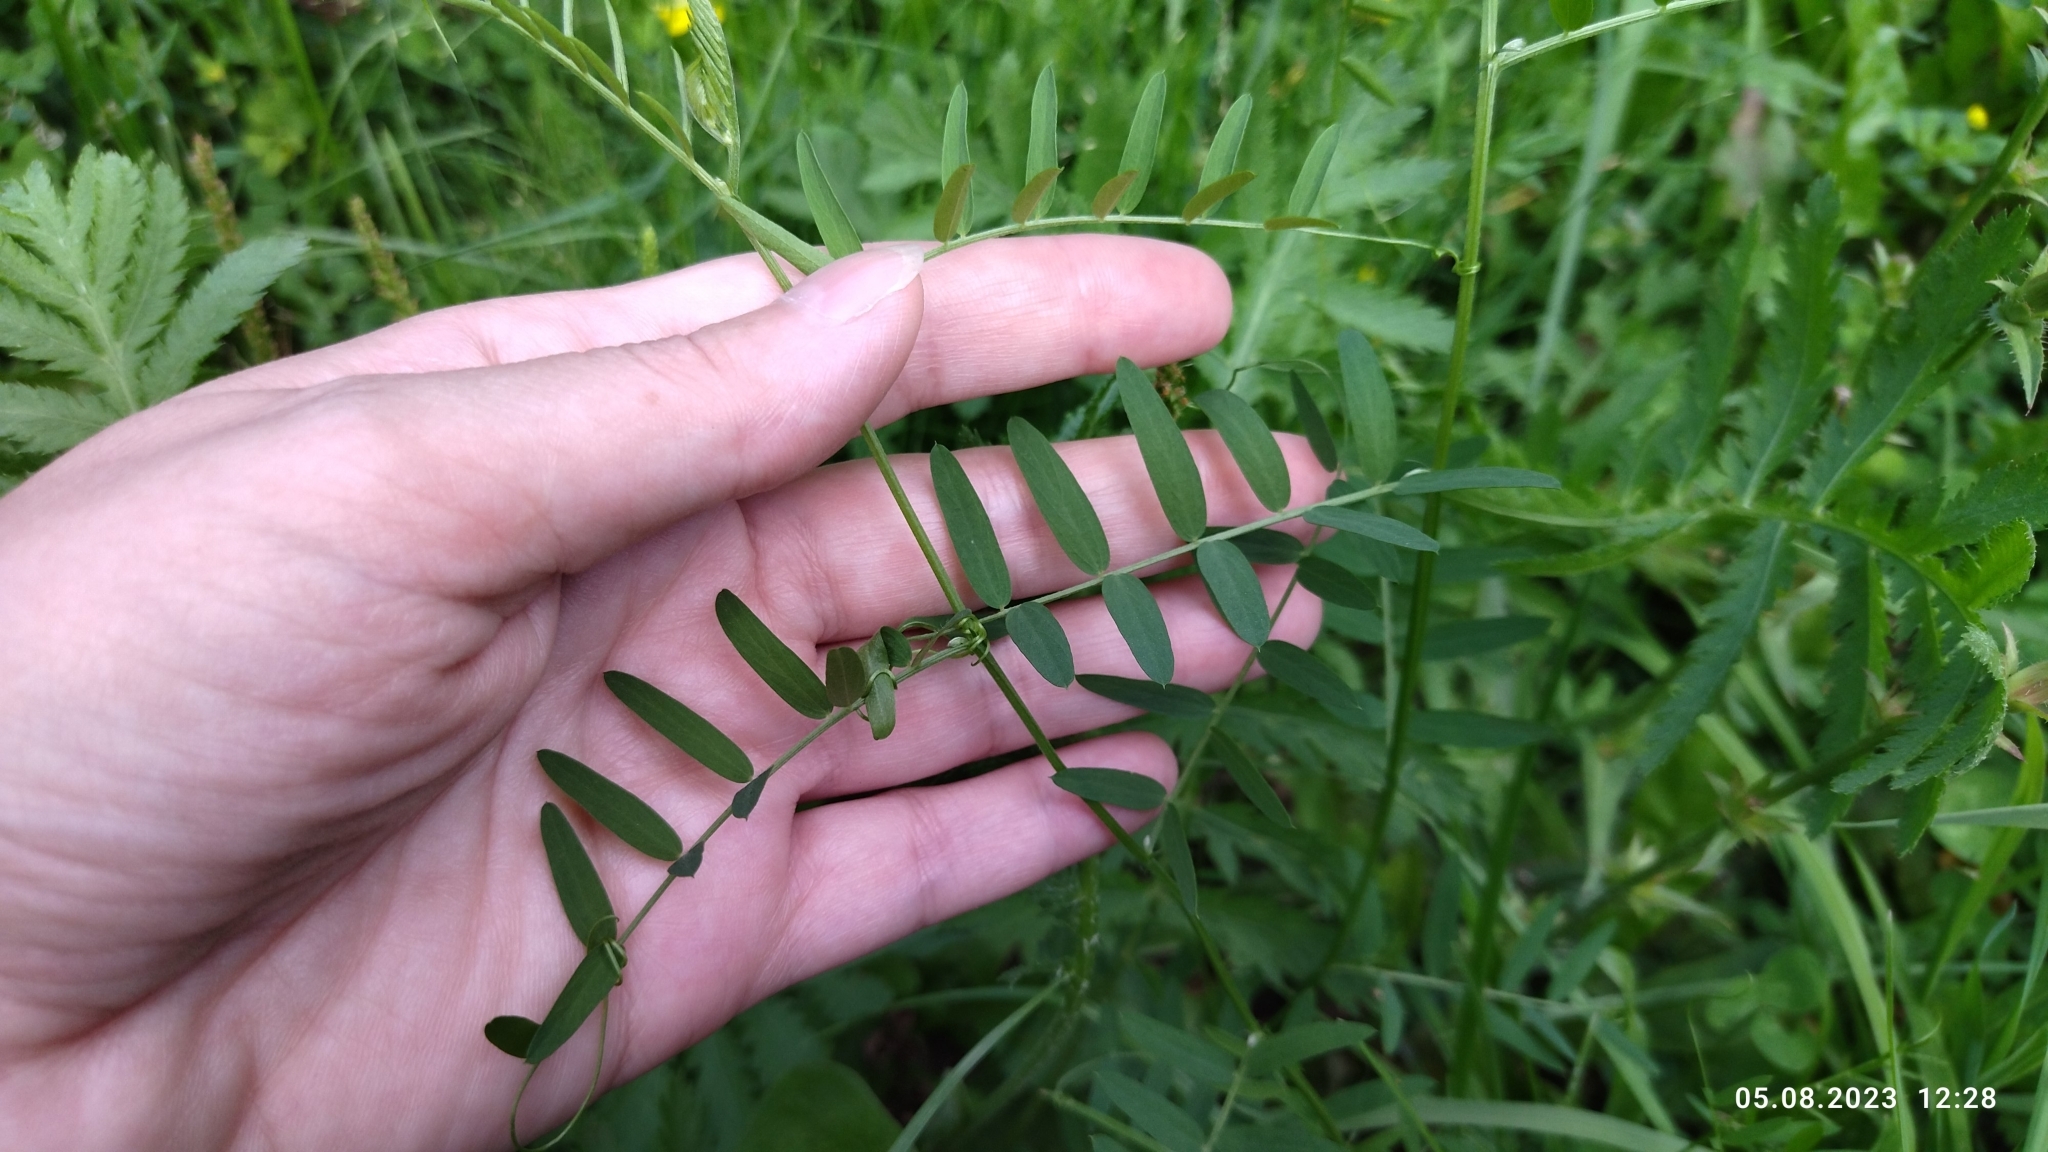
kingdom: Plantae
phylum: Tracheophyta
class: Magnoliopsida
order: Fabales
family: Fabaceae
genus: Vicia
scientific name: Vicia cracca
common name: Bird vetch
